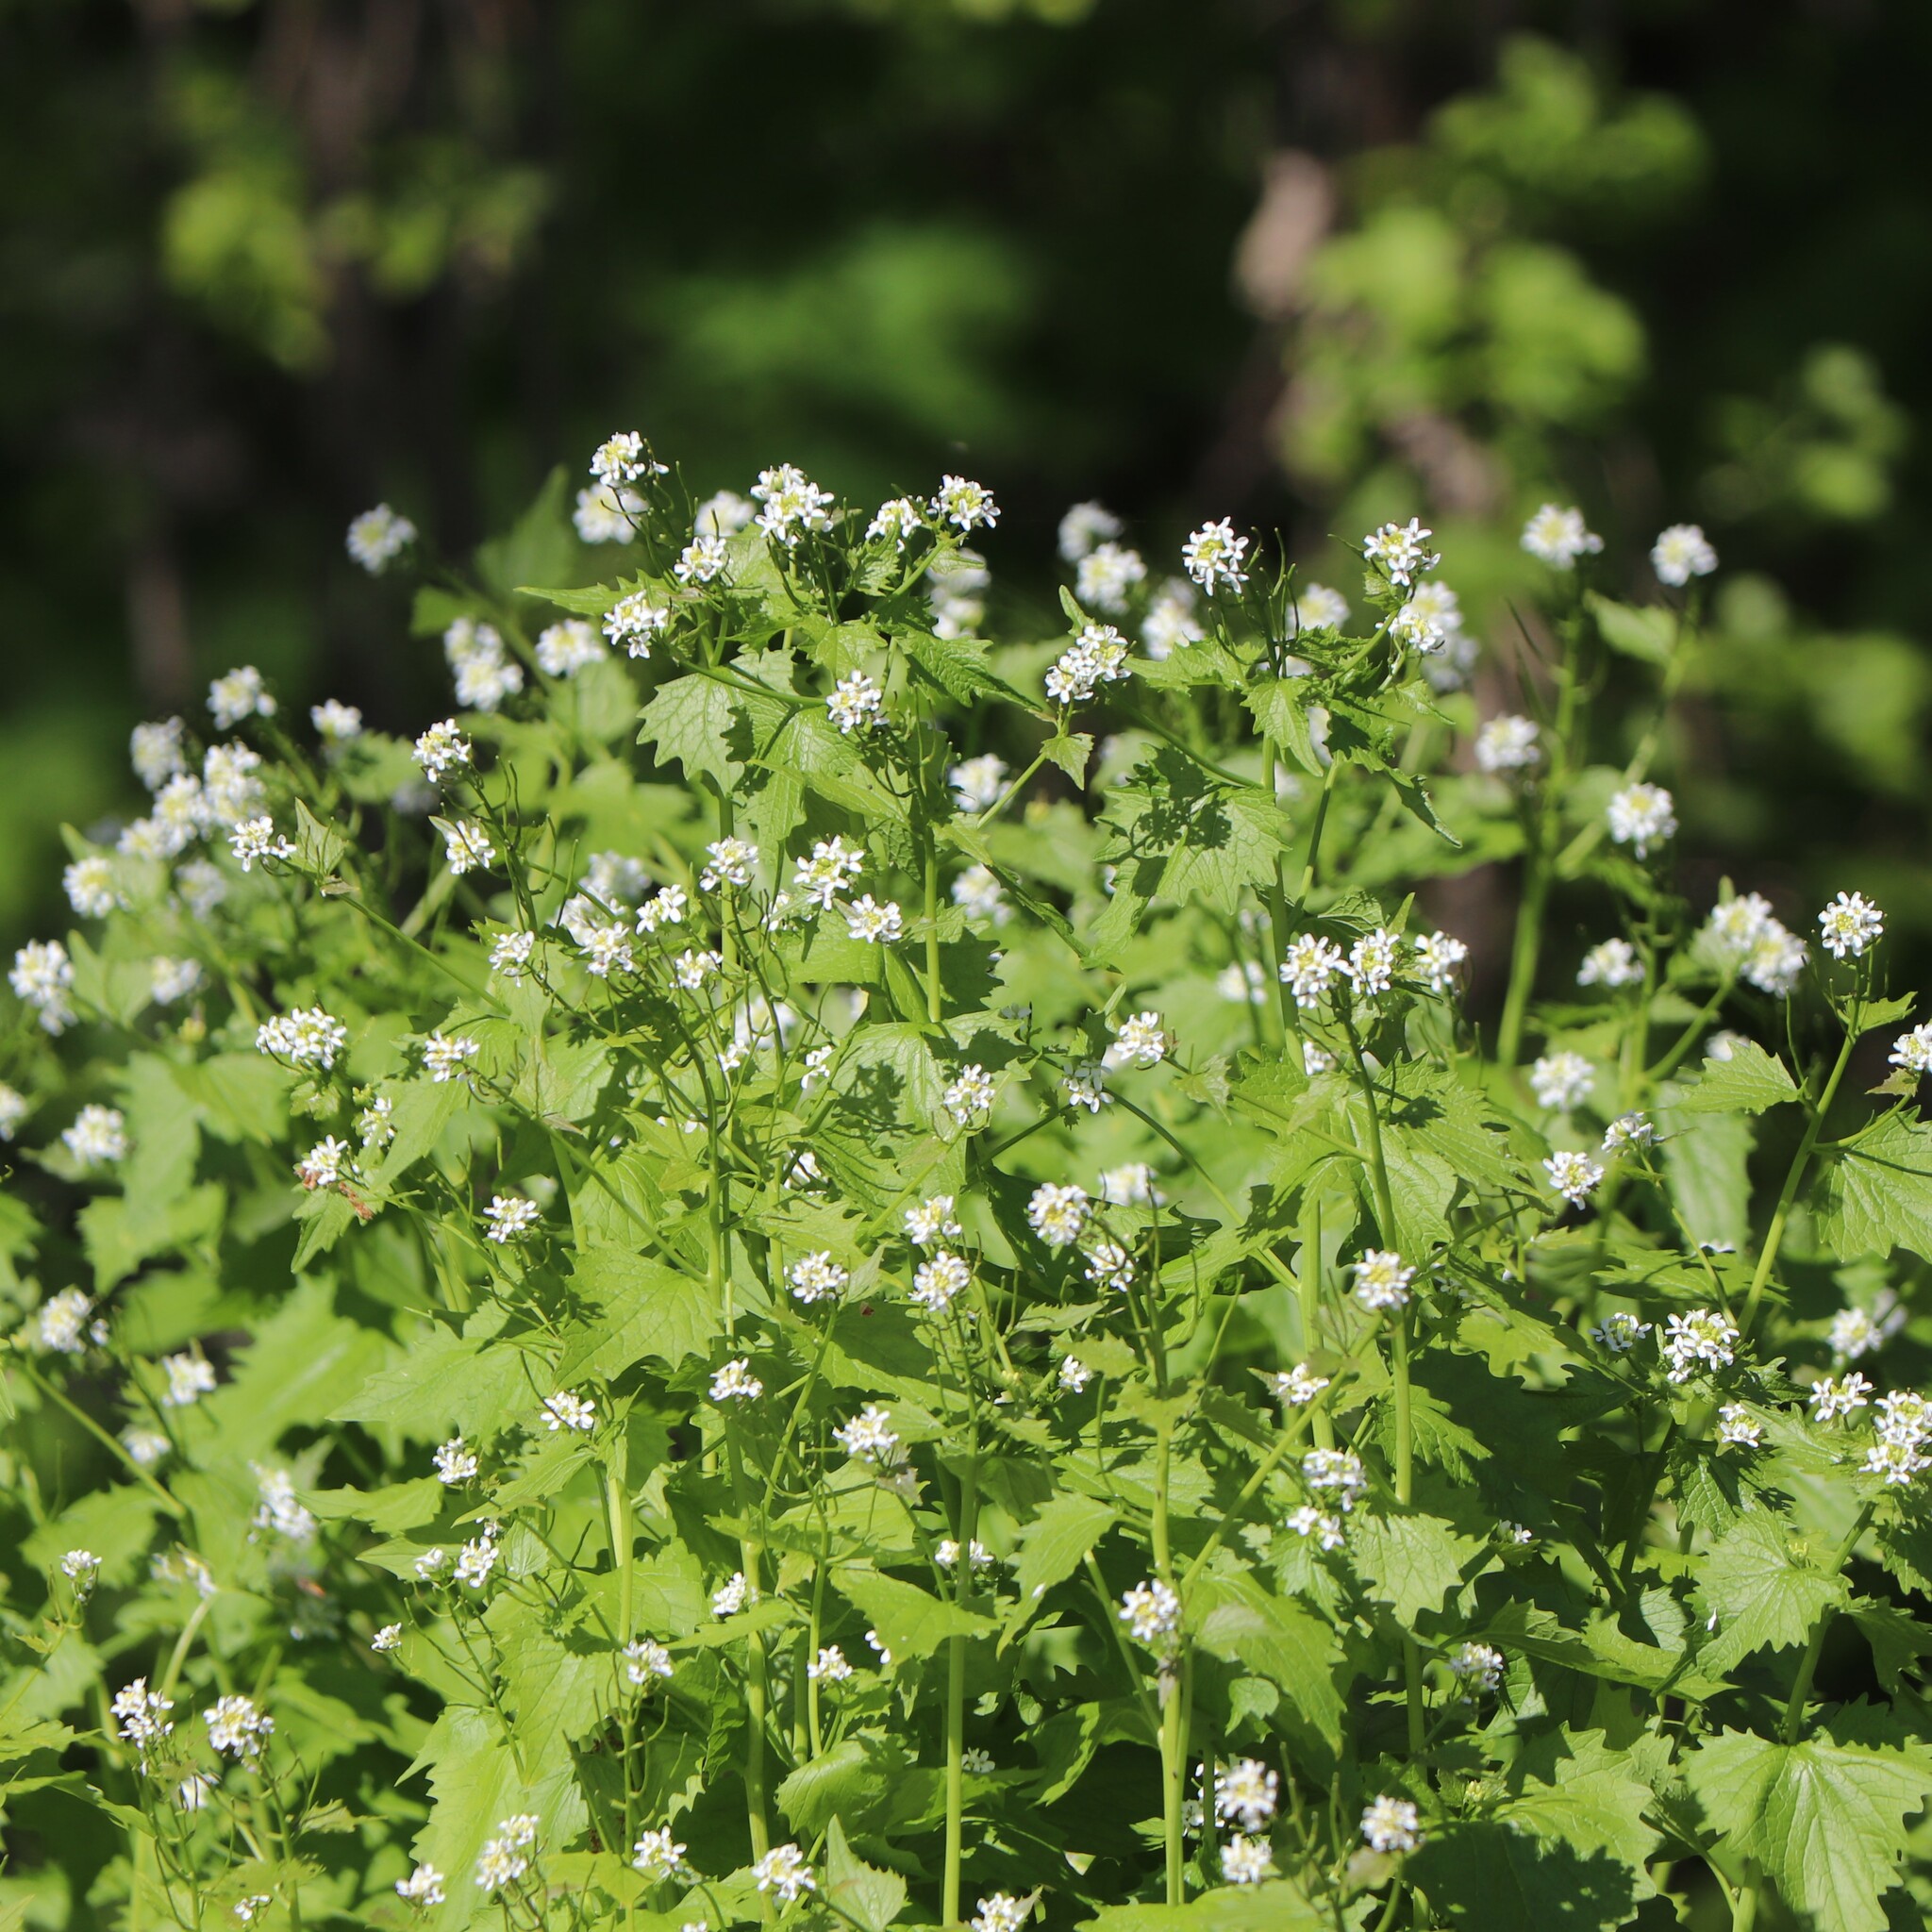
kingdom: Plantae
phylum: Tracheophyta
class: Magnoliopsida
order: Brassicales
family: Brassicaceae
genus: Alliaria
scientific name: Alliaria petiolata
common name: Garlic mustard
